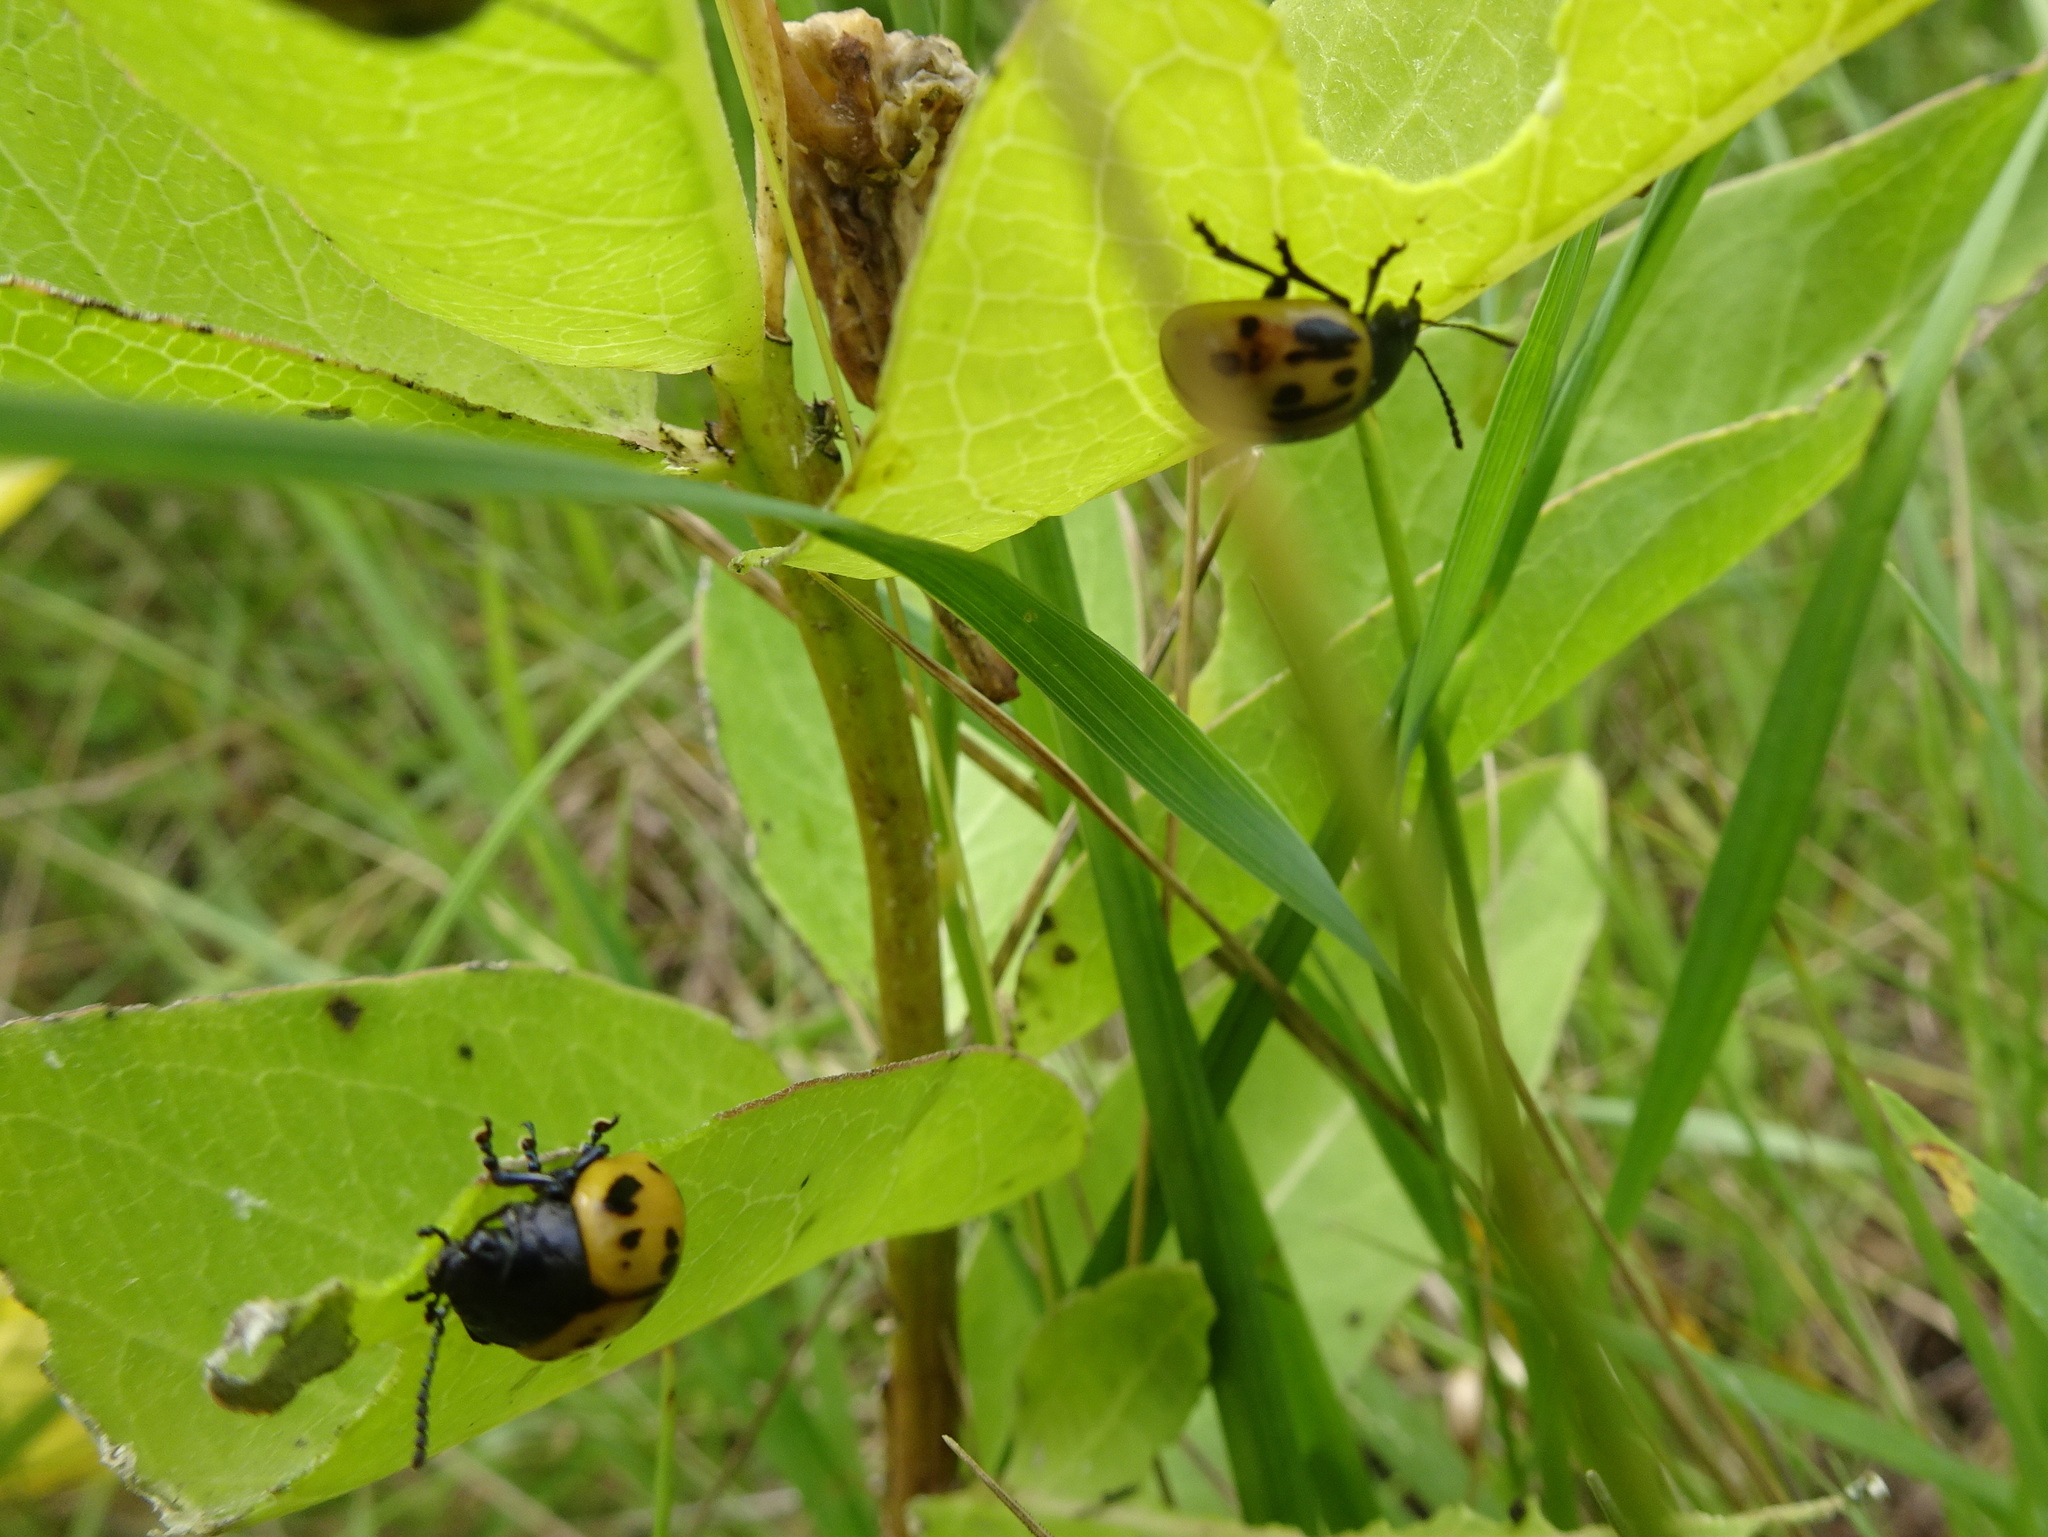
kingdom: Animalia
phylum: Arthropoda
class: Insecta
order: Coleoptera
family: Chrysomelidae
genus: Labidomera
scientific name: Labidomera clivicollis
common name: Swamp milkweed leaf beetle
